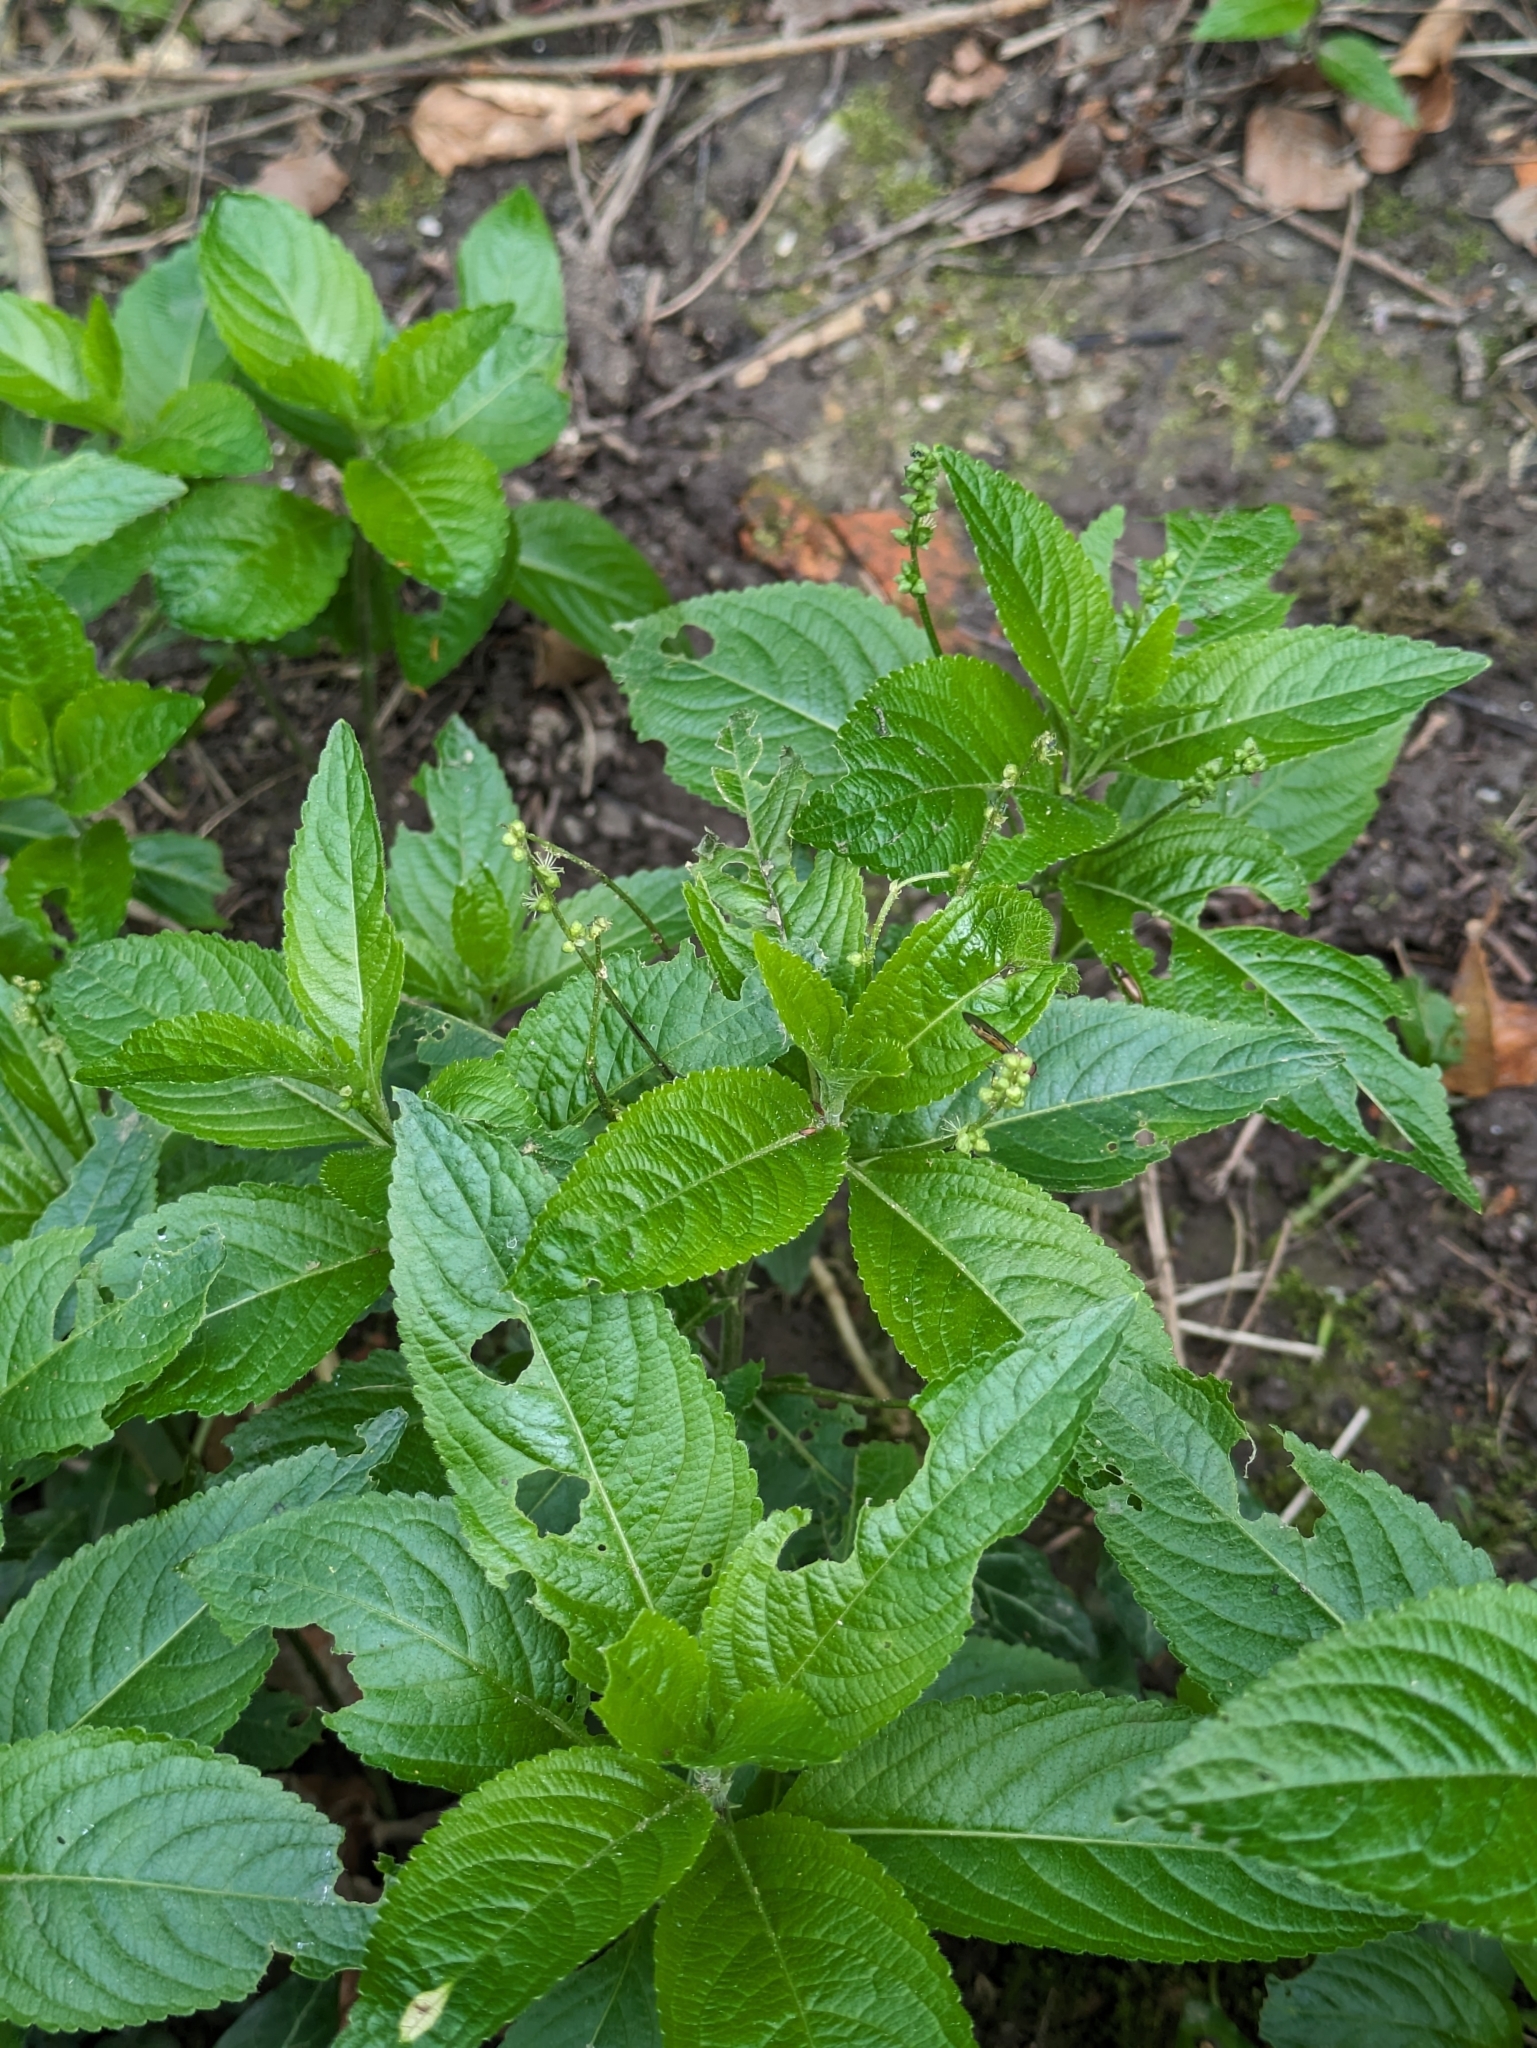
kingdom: Plantae
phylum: Tracheophyta
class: Magnoliopsida
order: Malpighiales
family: Euphorbiaceae
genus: Mercurialis
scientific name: Mercurialis perennis
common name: Dog mercury
